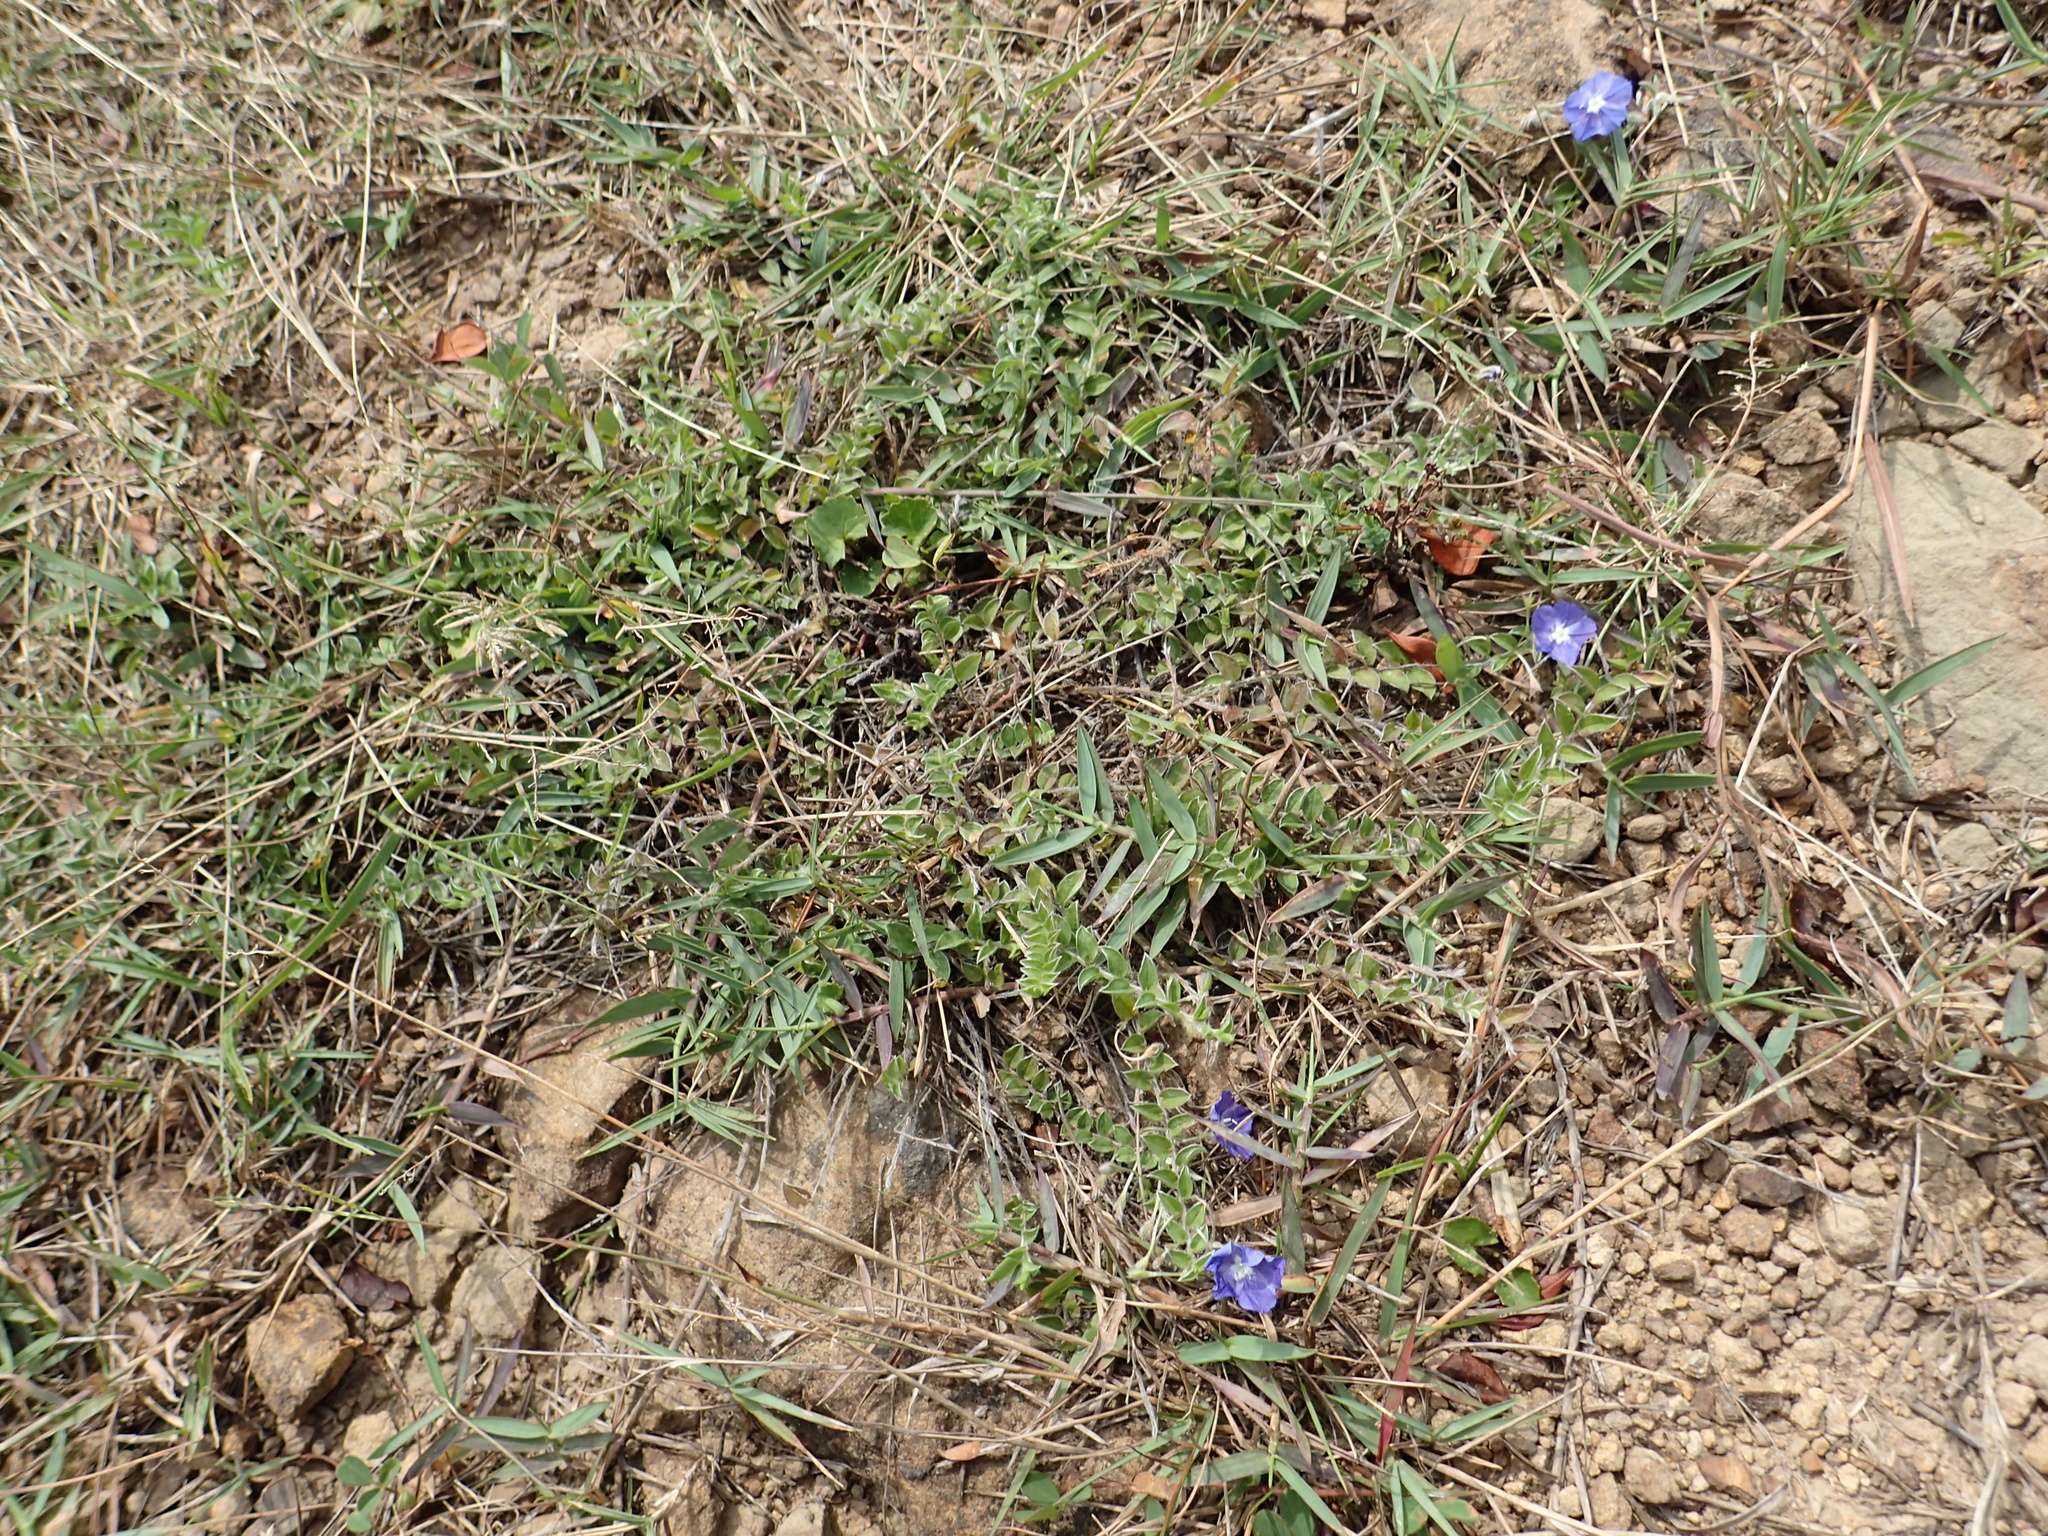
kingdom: Plantae
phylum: Tracheophyta
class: Magnoliopsida
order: Solanales
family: Convolvulaceae
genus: Evolvulus
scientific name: Evolvulus alsinoides
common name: Slender dwarf morning-glory
